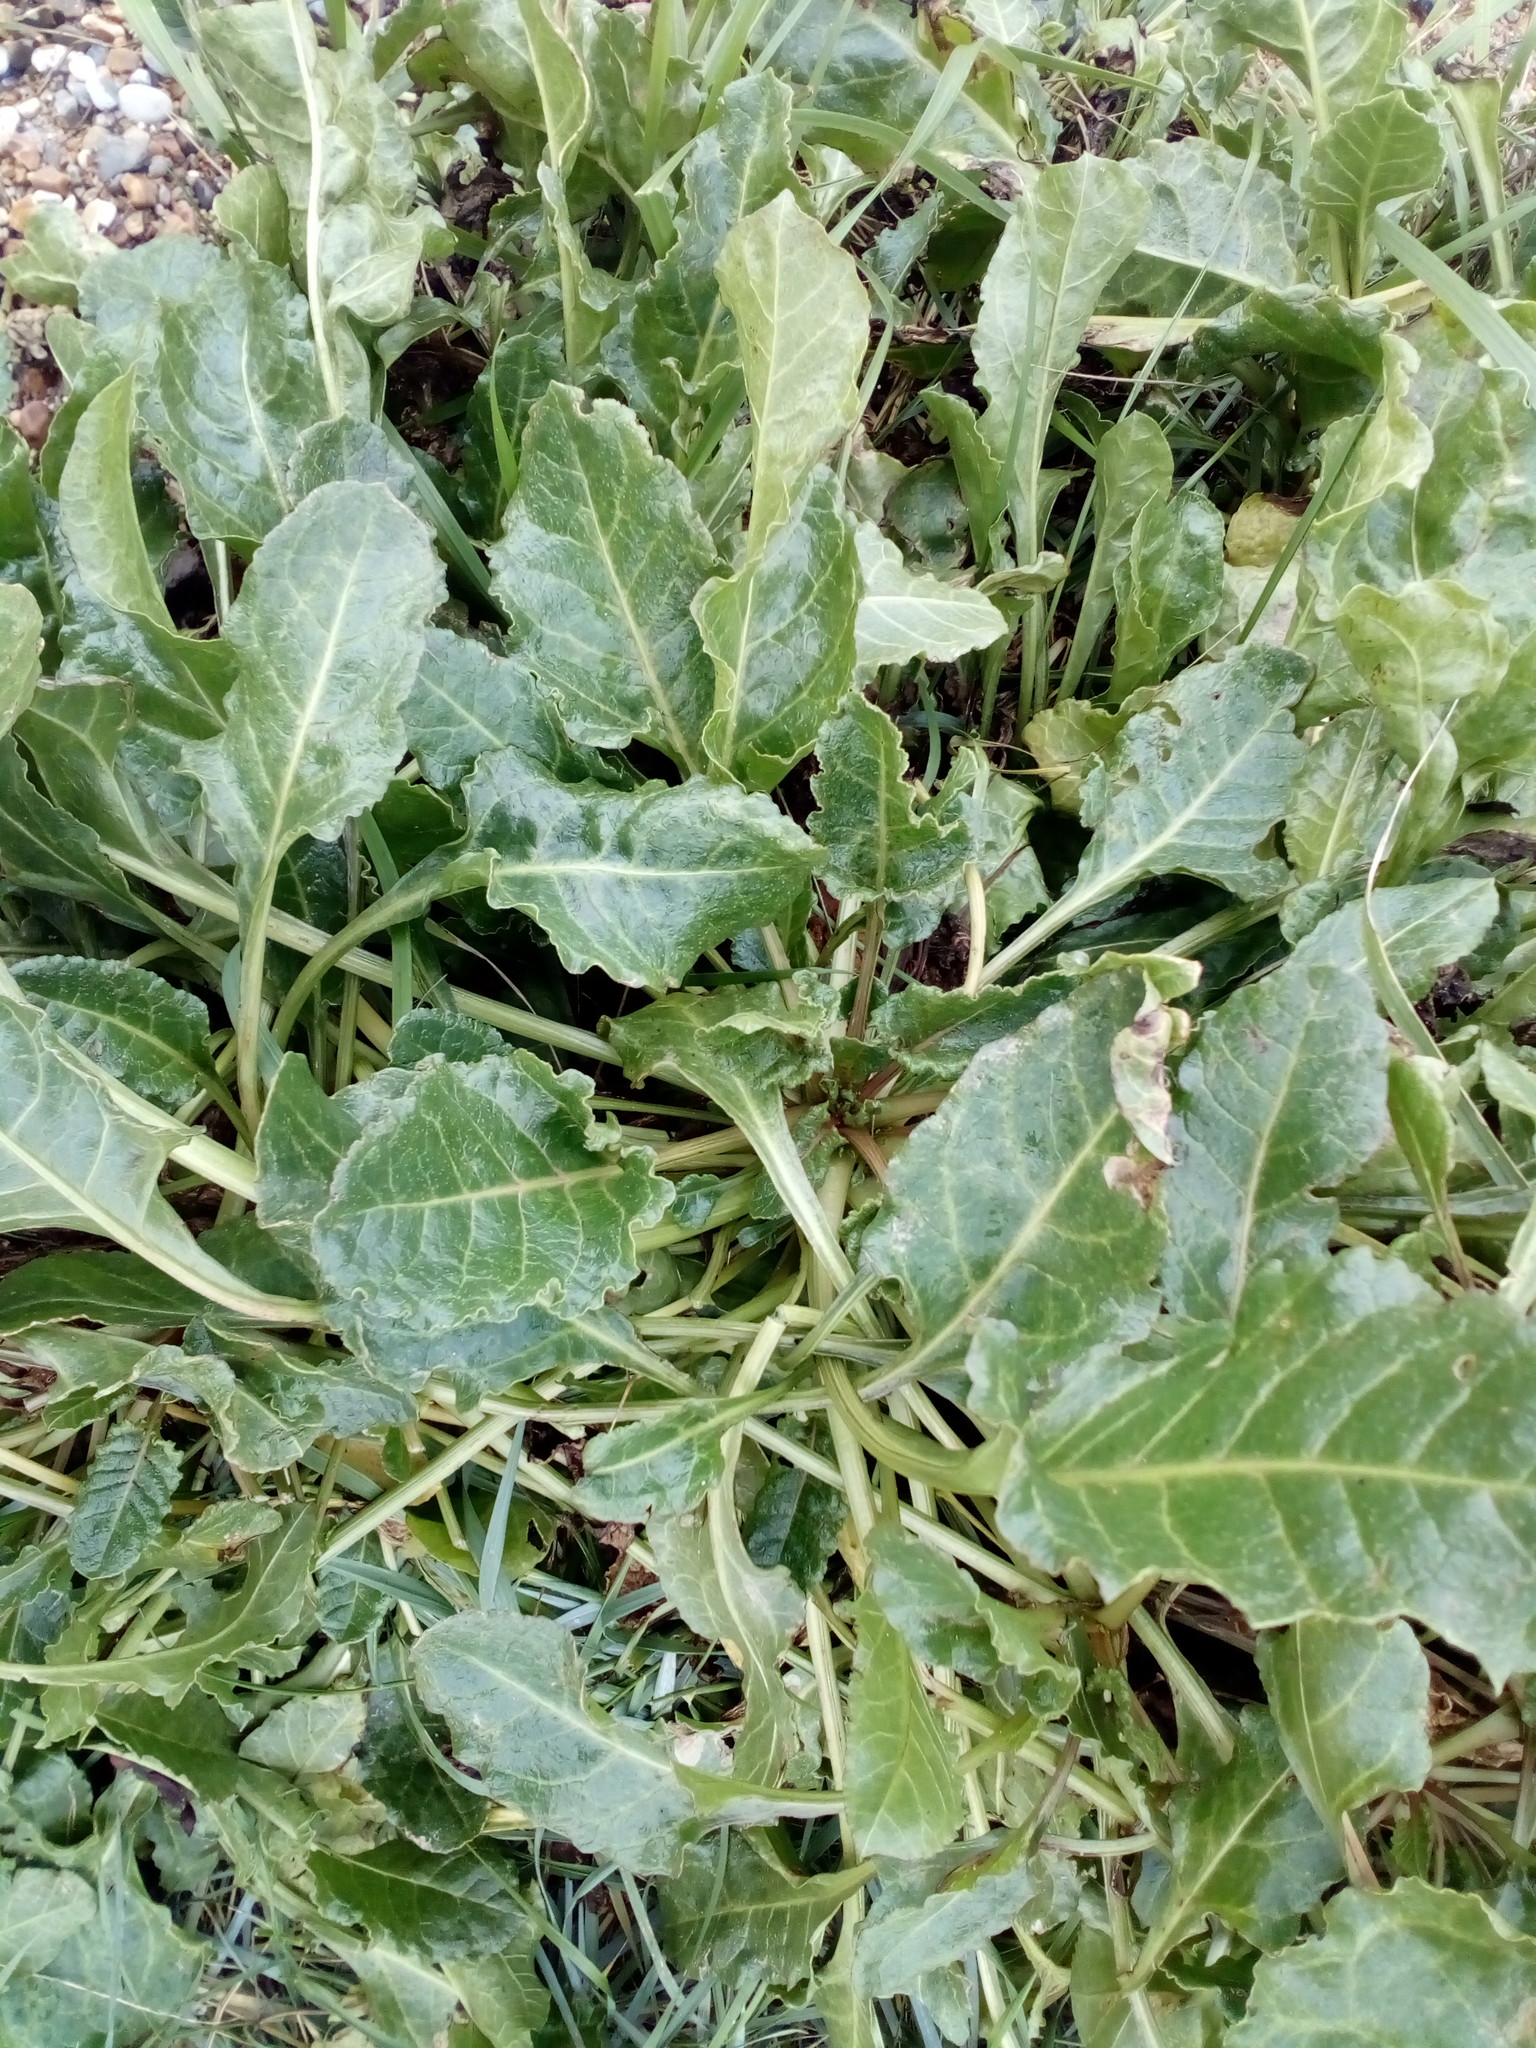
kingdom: Plantae
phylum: Tracheophyta
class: Magnoliopsida
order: Caryophyllales
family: Amaranthaceae
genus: Beta
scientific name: Beta vulgaris
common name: Beet
